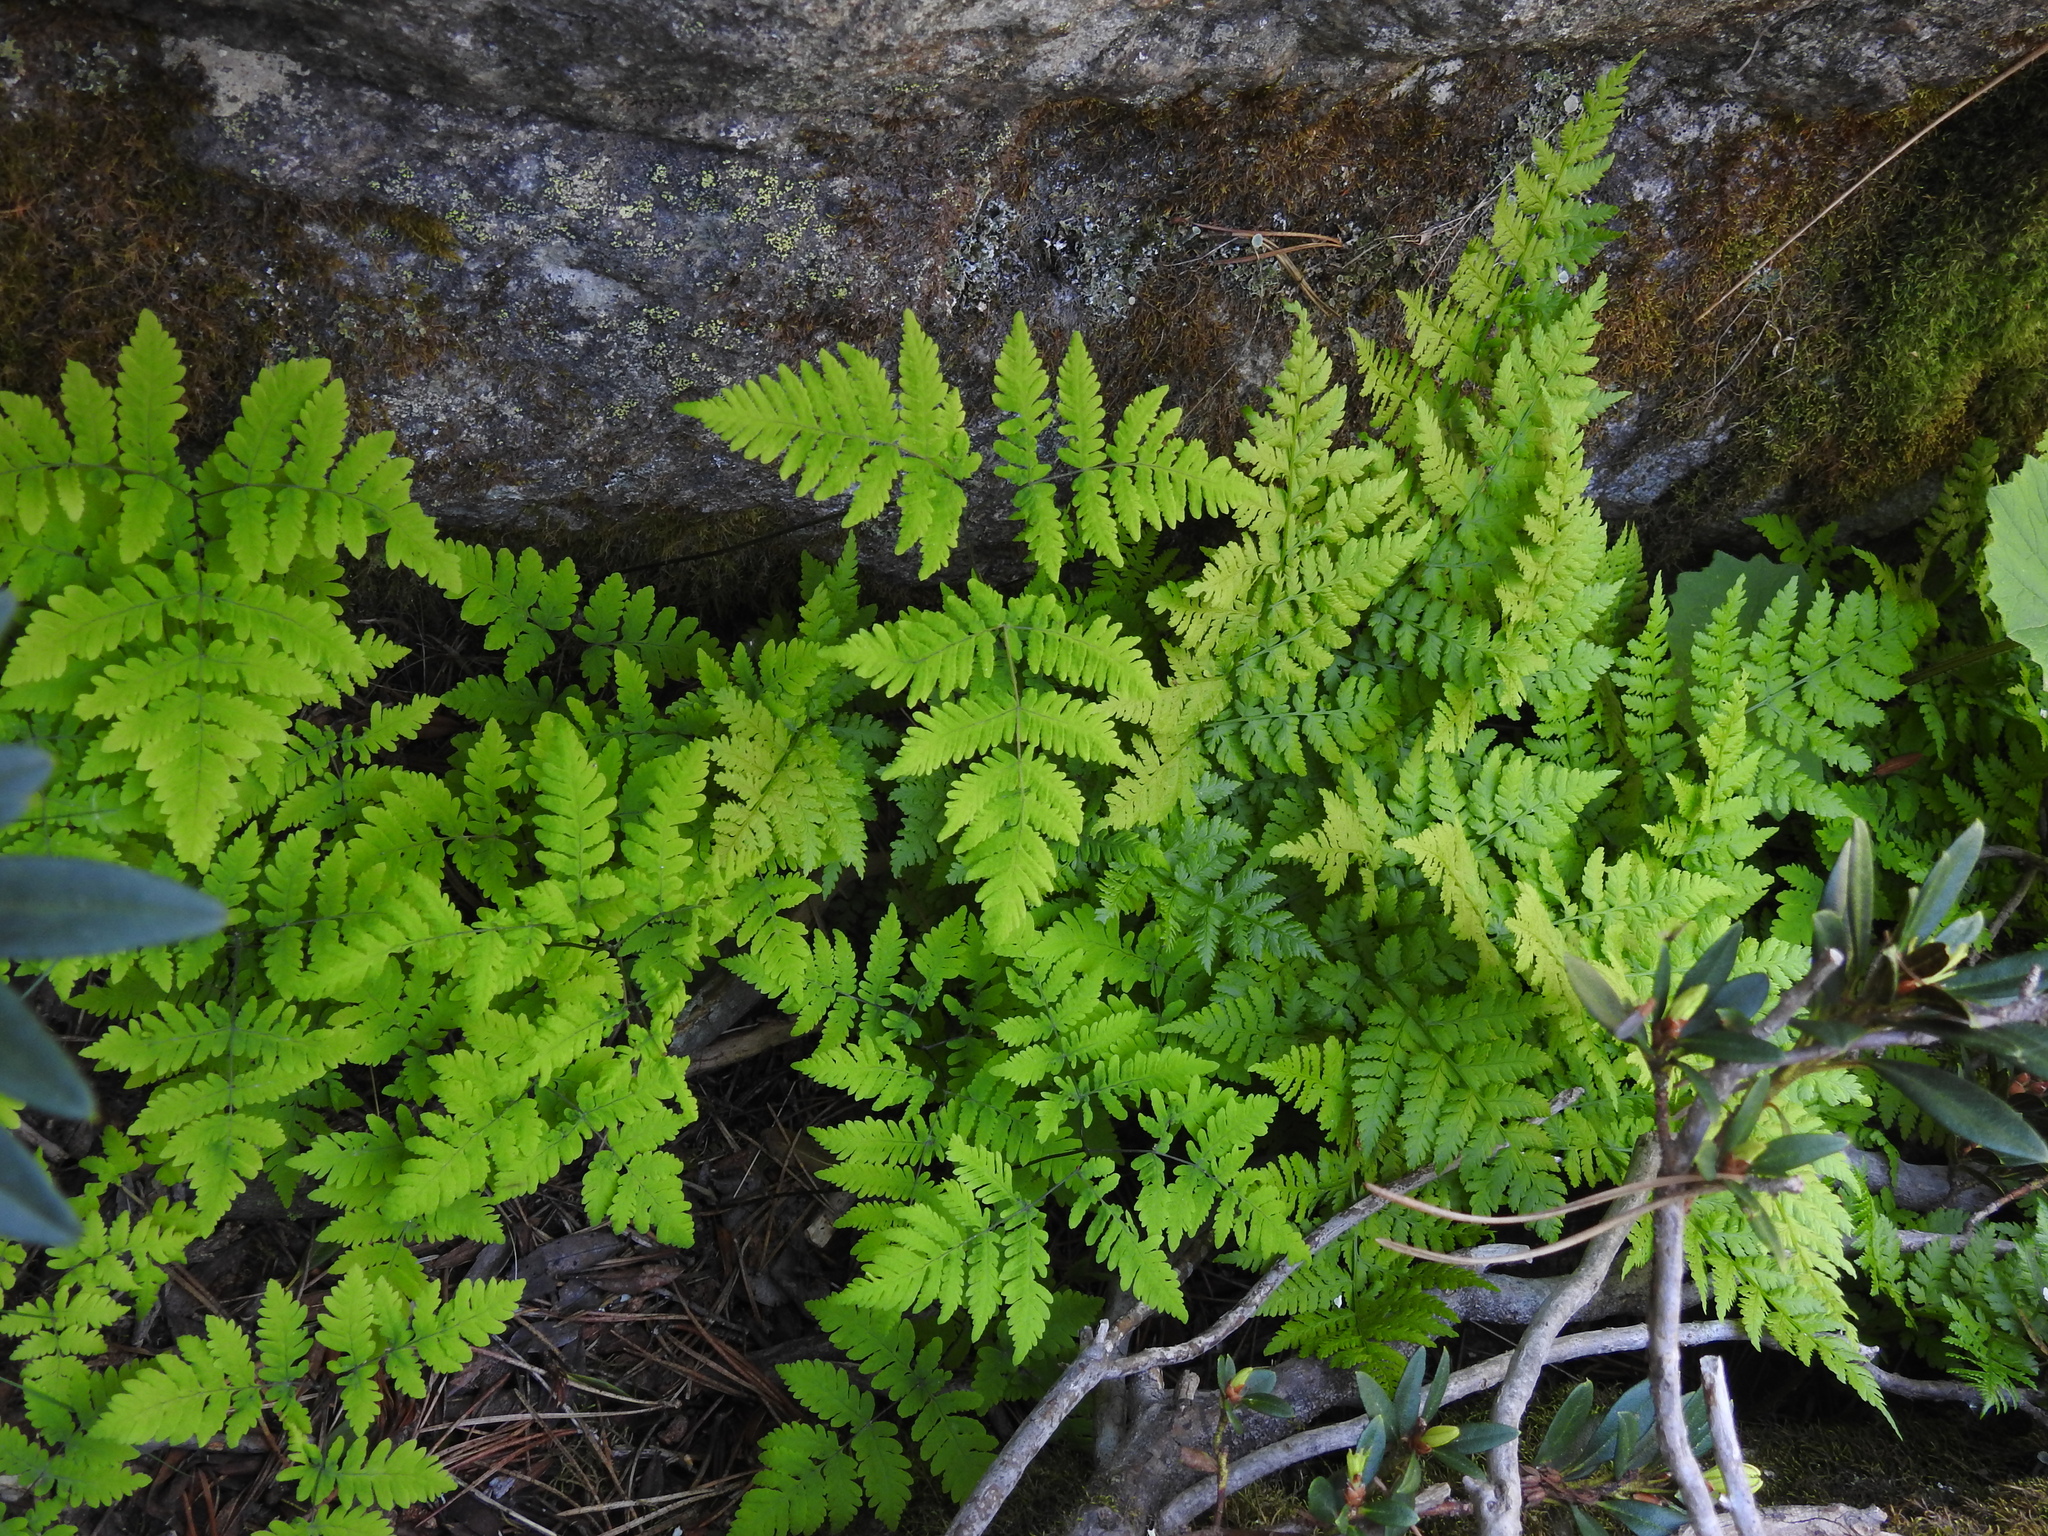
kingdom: Plantae
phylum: Tracheophyta
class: Polypodiopsida
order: Polypodiales
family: Cystopteridaceae
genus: Gymnocarpium
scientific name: Gymnocarpium dryopteris
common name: Oak fern
